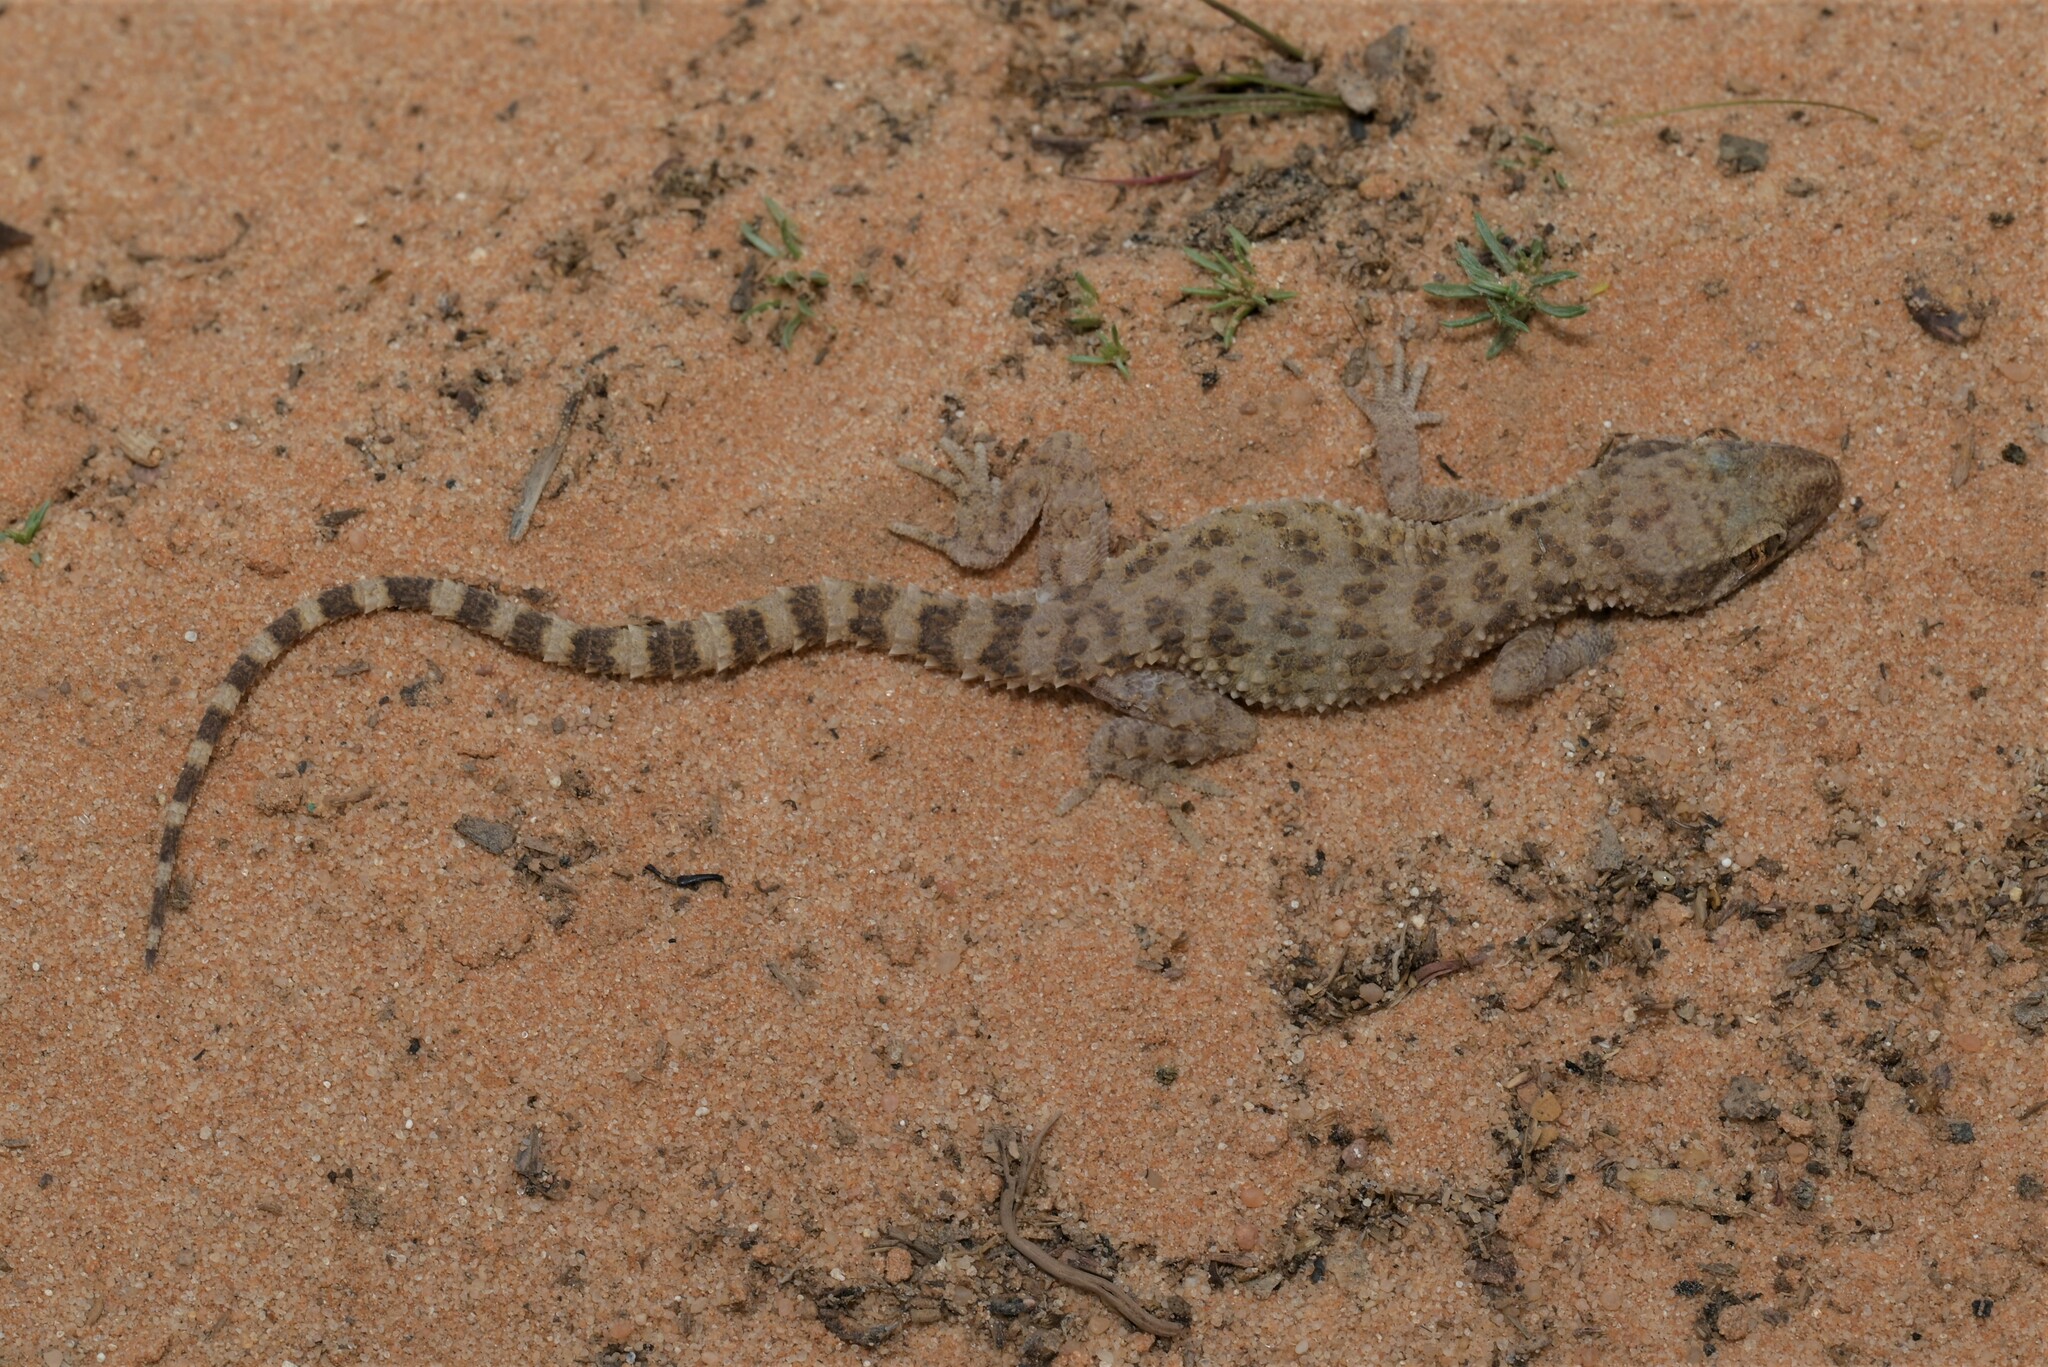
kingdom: Animalia
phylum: Chordata
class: Squamata
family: Gekkonidae
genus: Bunopus
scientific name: Bunopus tuberculatus
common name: Southern tuberculated gecko
